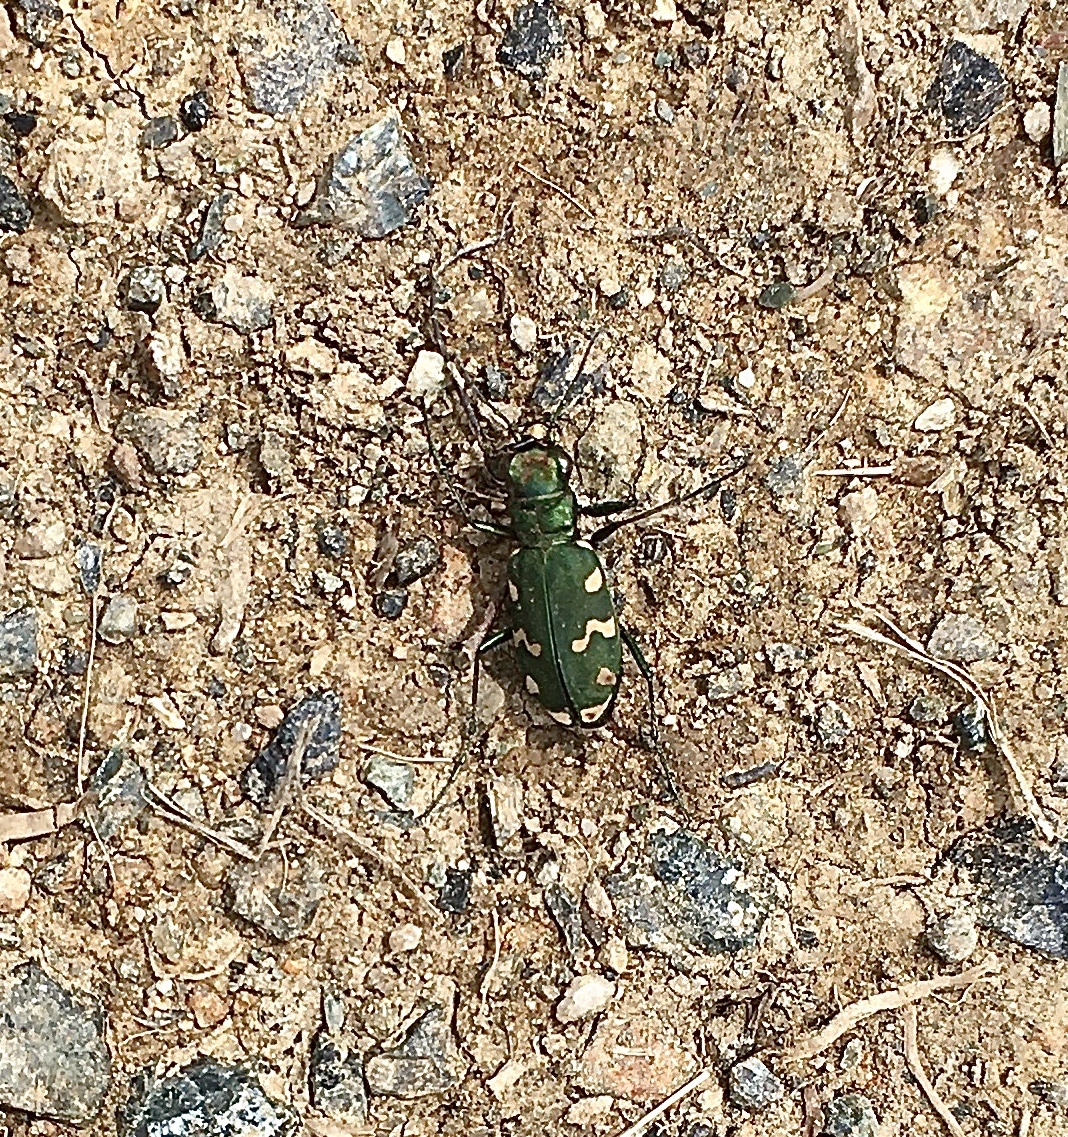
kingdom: Animalia
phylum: Arthropoda
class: Insecta
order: Coleoptera
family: Carabidae
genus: Cicindela
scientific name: Cicindela gallica
